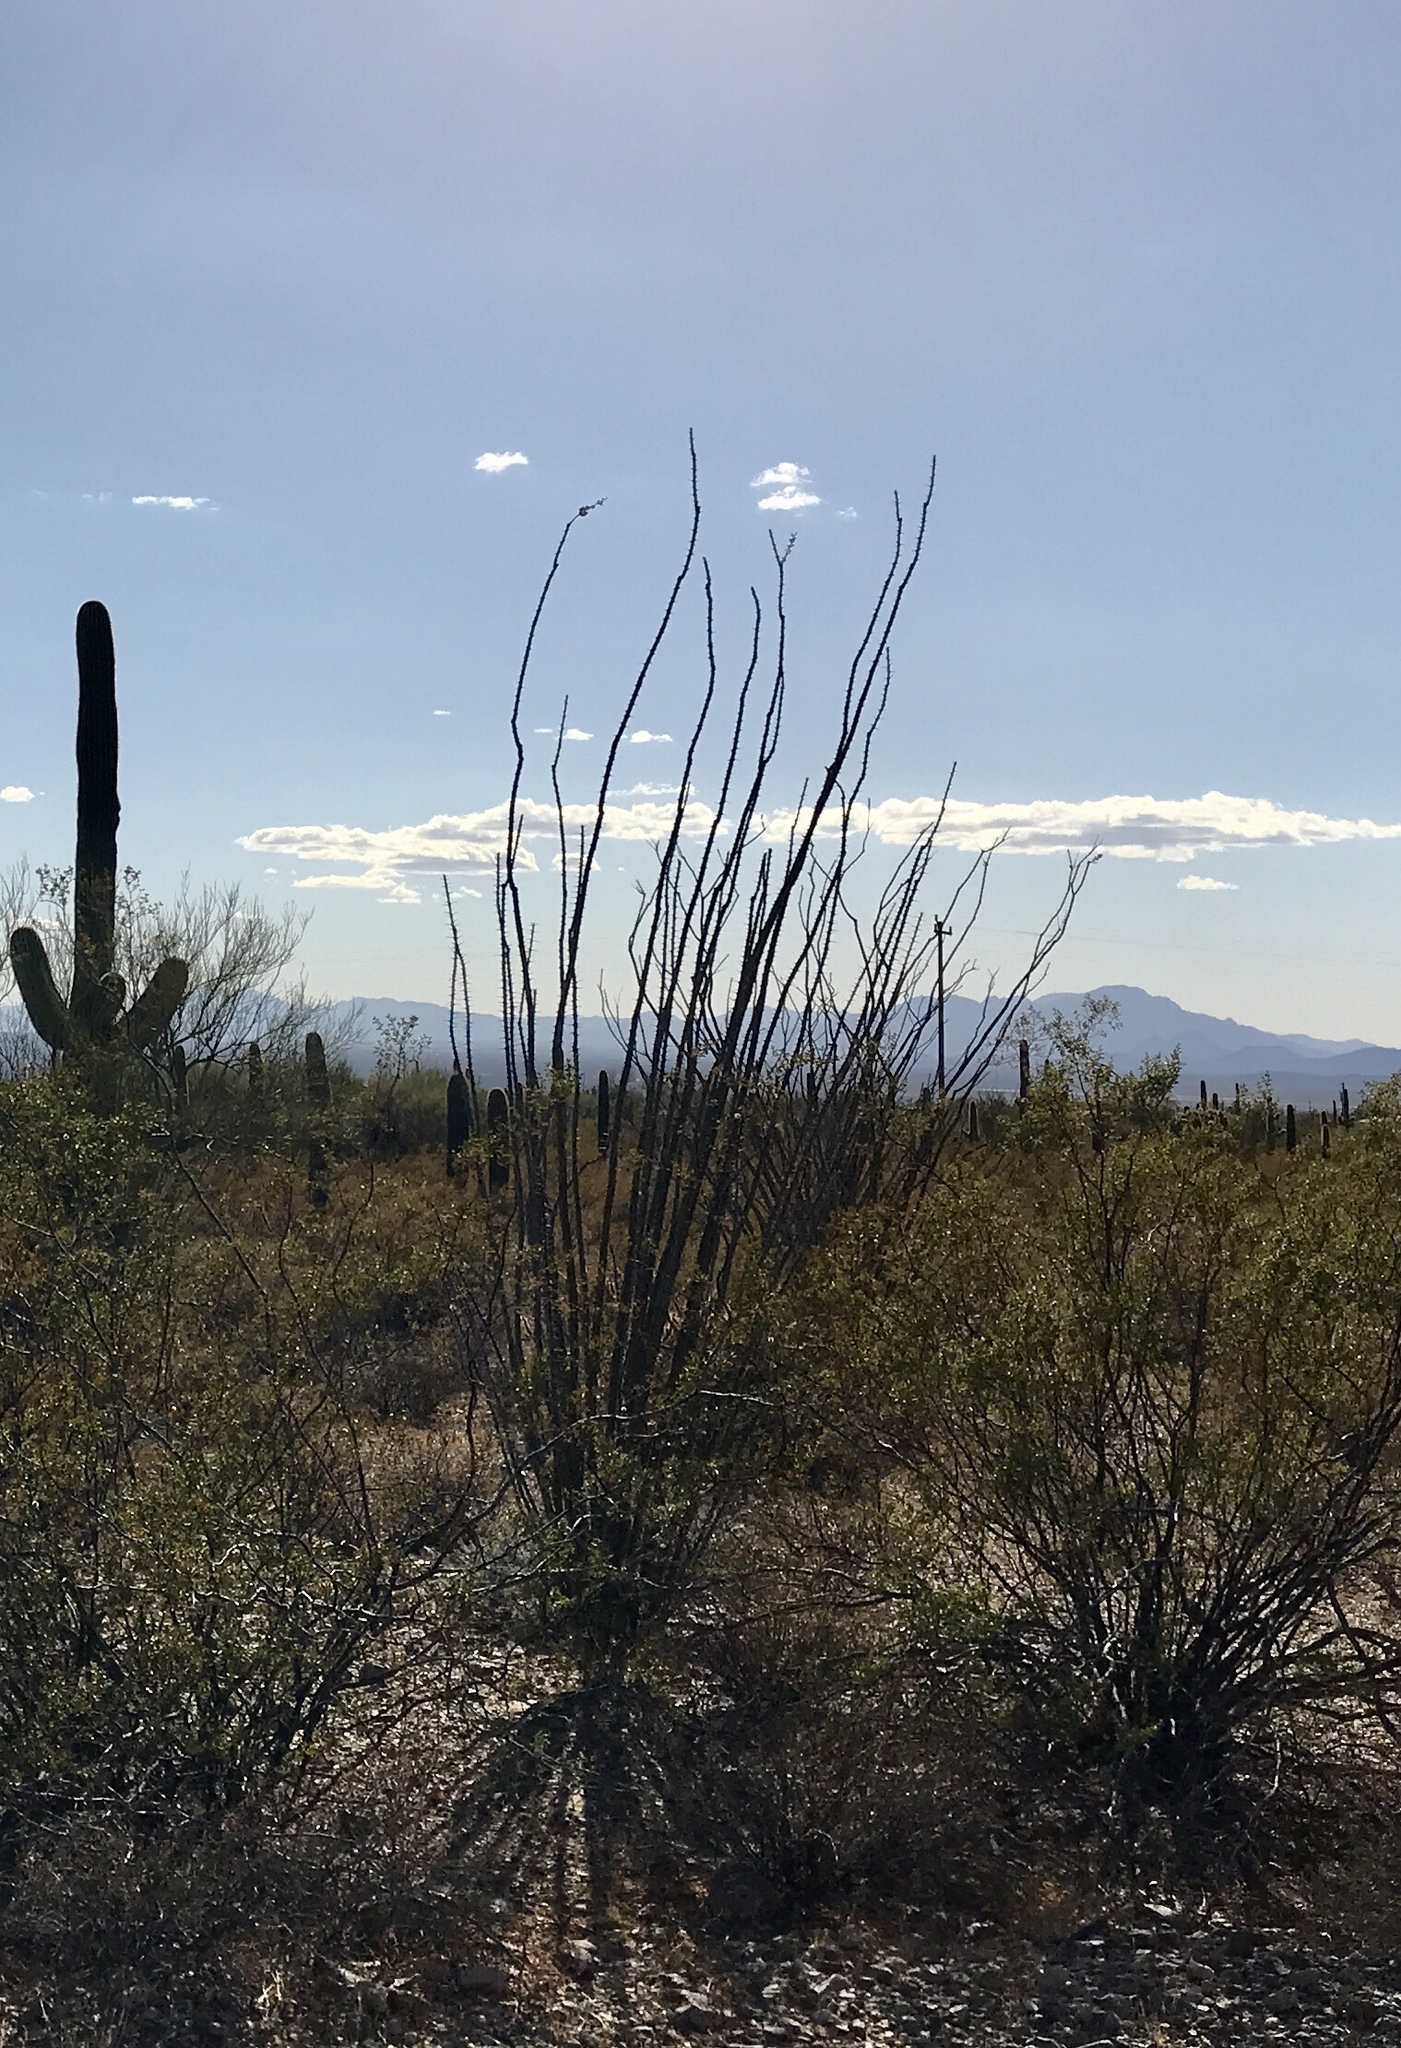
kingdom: Plantae
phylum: Tracheophyta
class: Magnoliopsida
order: Ericales
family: Fouquieriaceae
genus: Fouquieria
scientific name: Fouquieria splendens
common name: Vine-cactus
